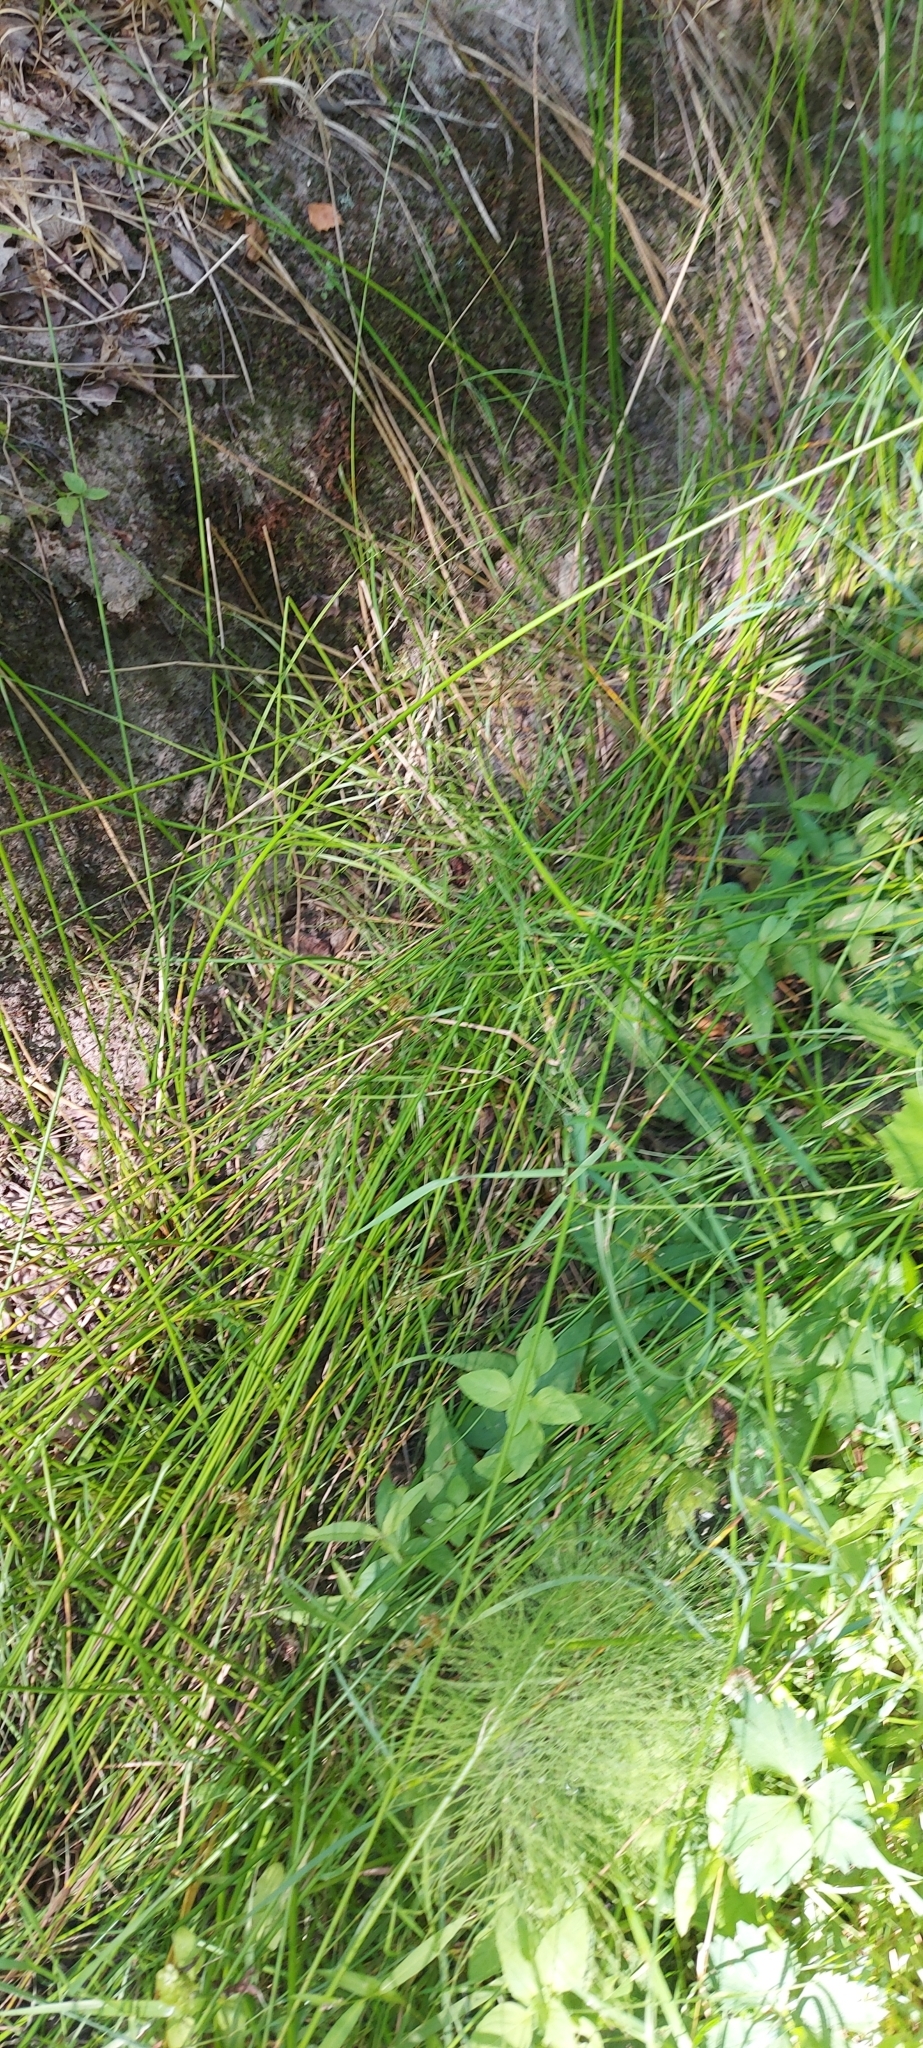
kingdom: Plantae
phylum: Tracheophyta
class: Liliopsida
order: Poales
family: Juncaceae
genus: Juncus
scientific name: Juncus effusus
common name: Soft rush
